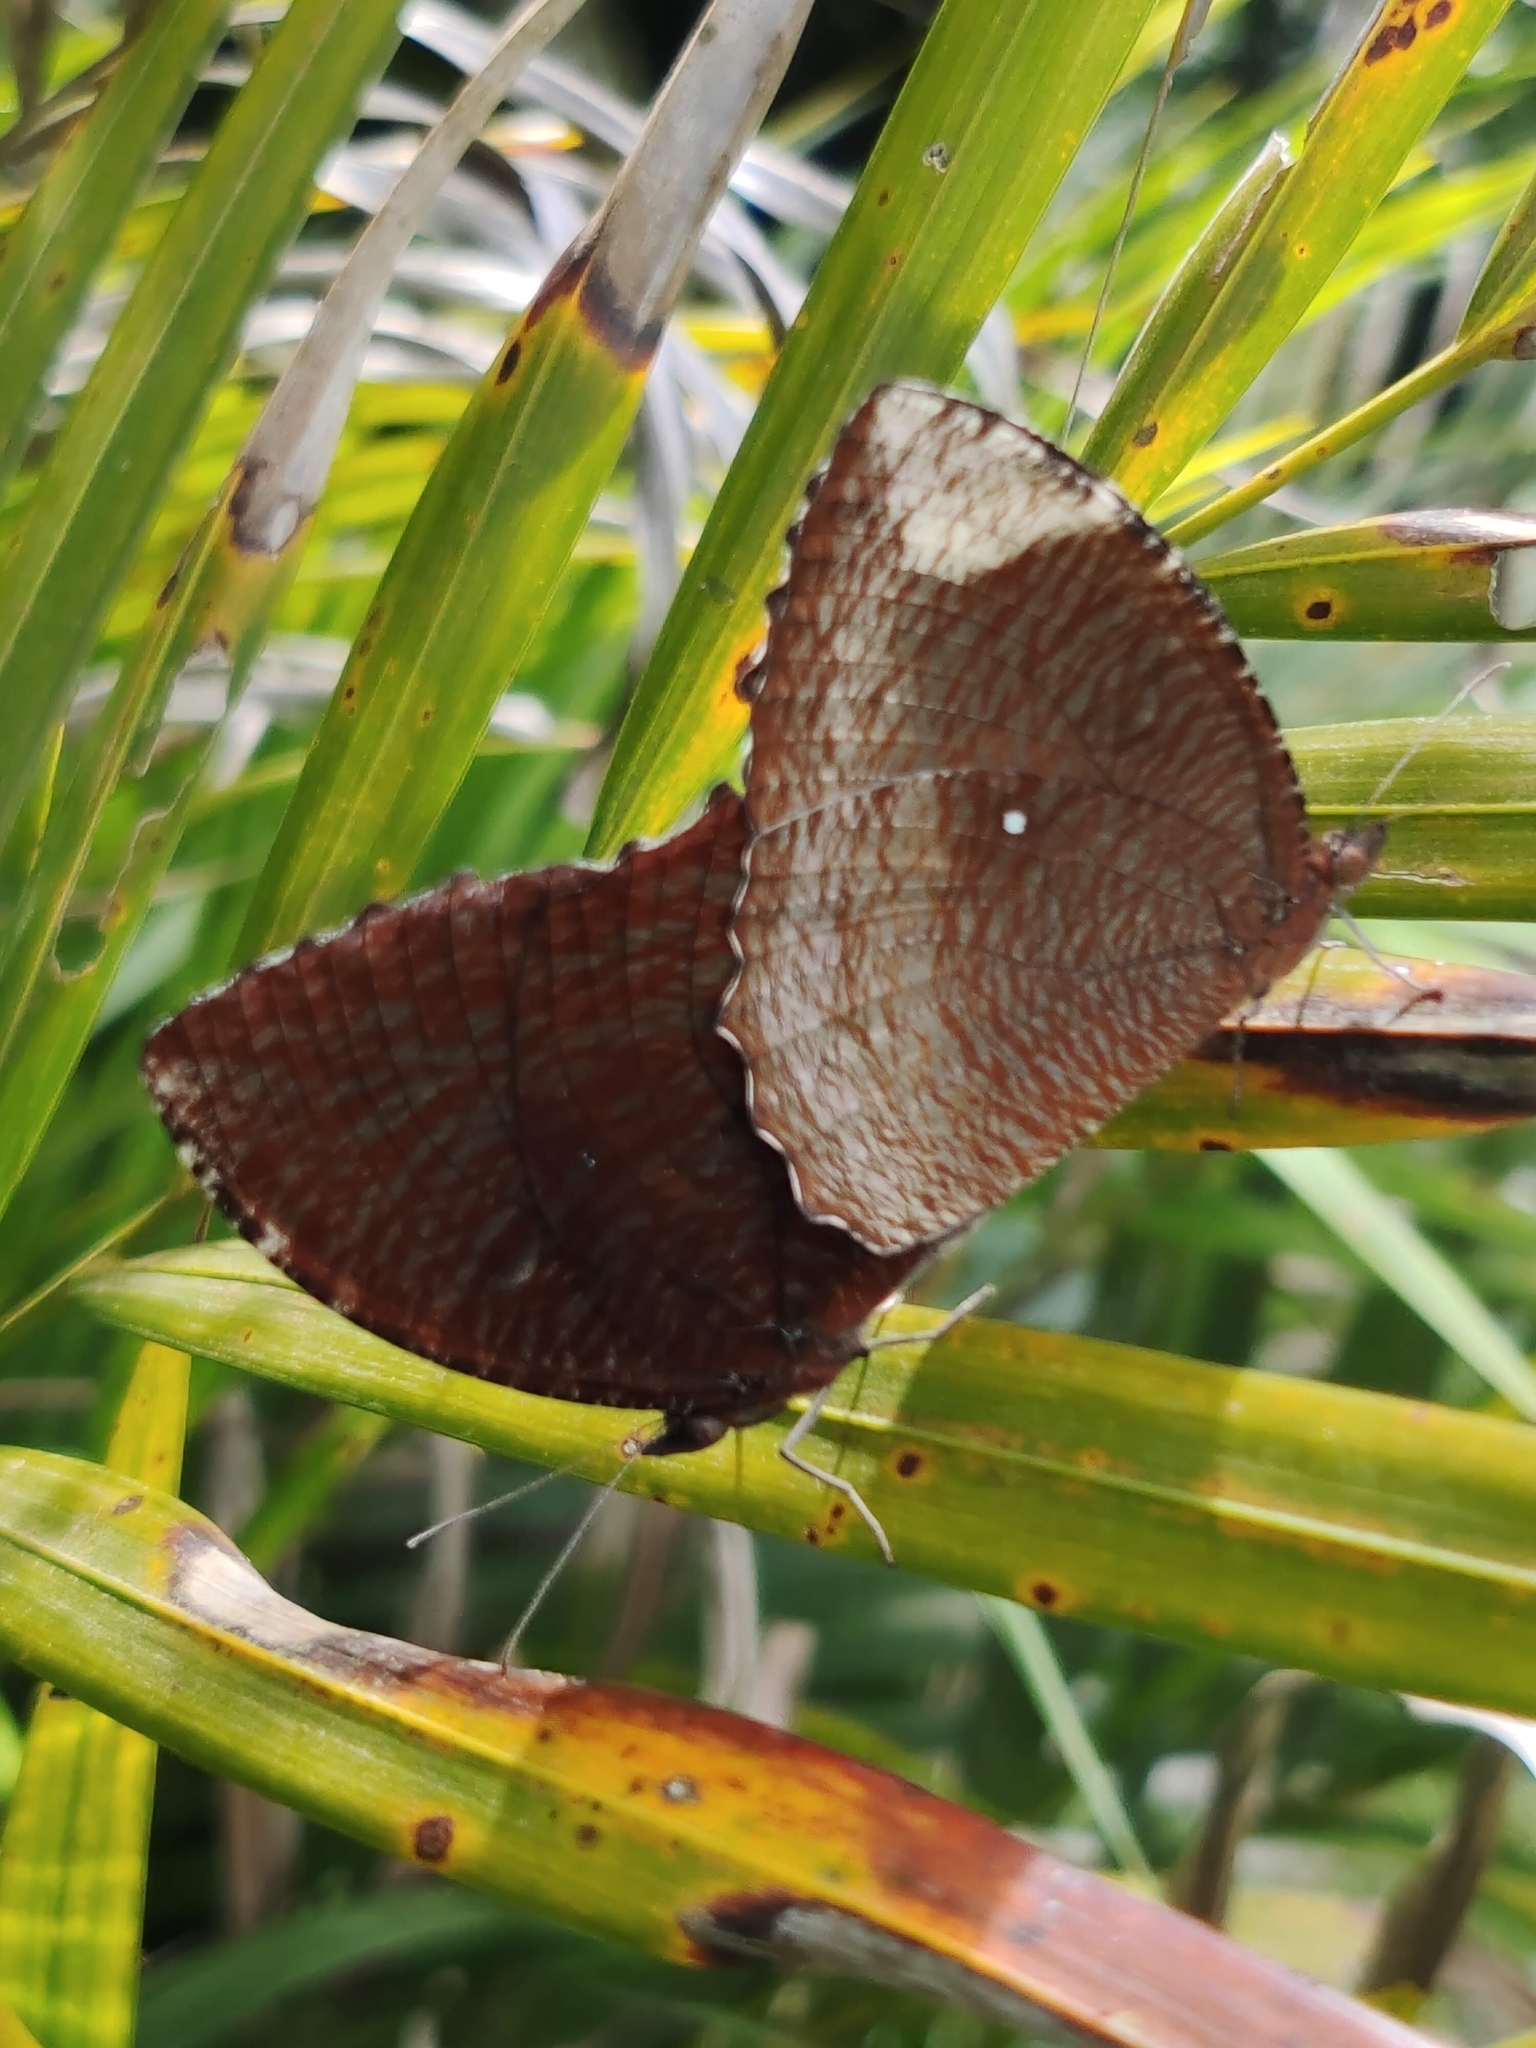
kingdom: Animalia
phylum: Arthropoda
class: Insecta
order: Lepidoptera
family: Nymphalidae
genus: Elymnias
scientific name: Elymnias hypermnestra
